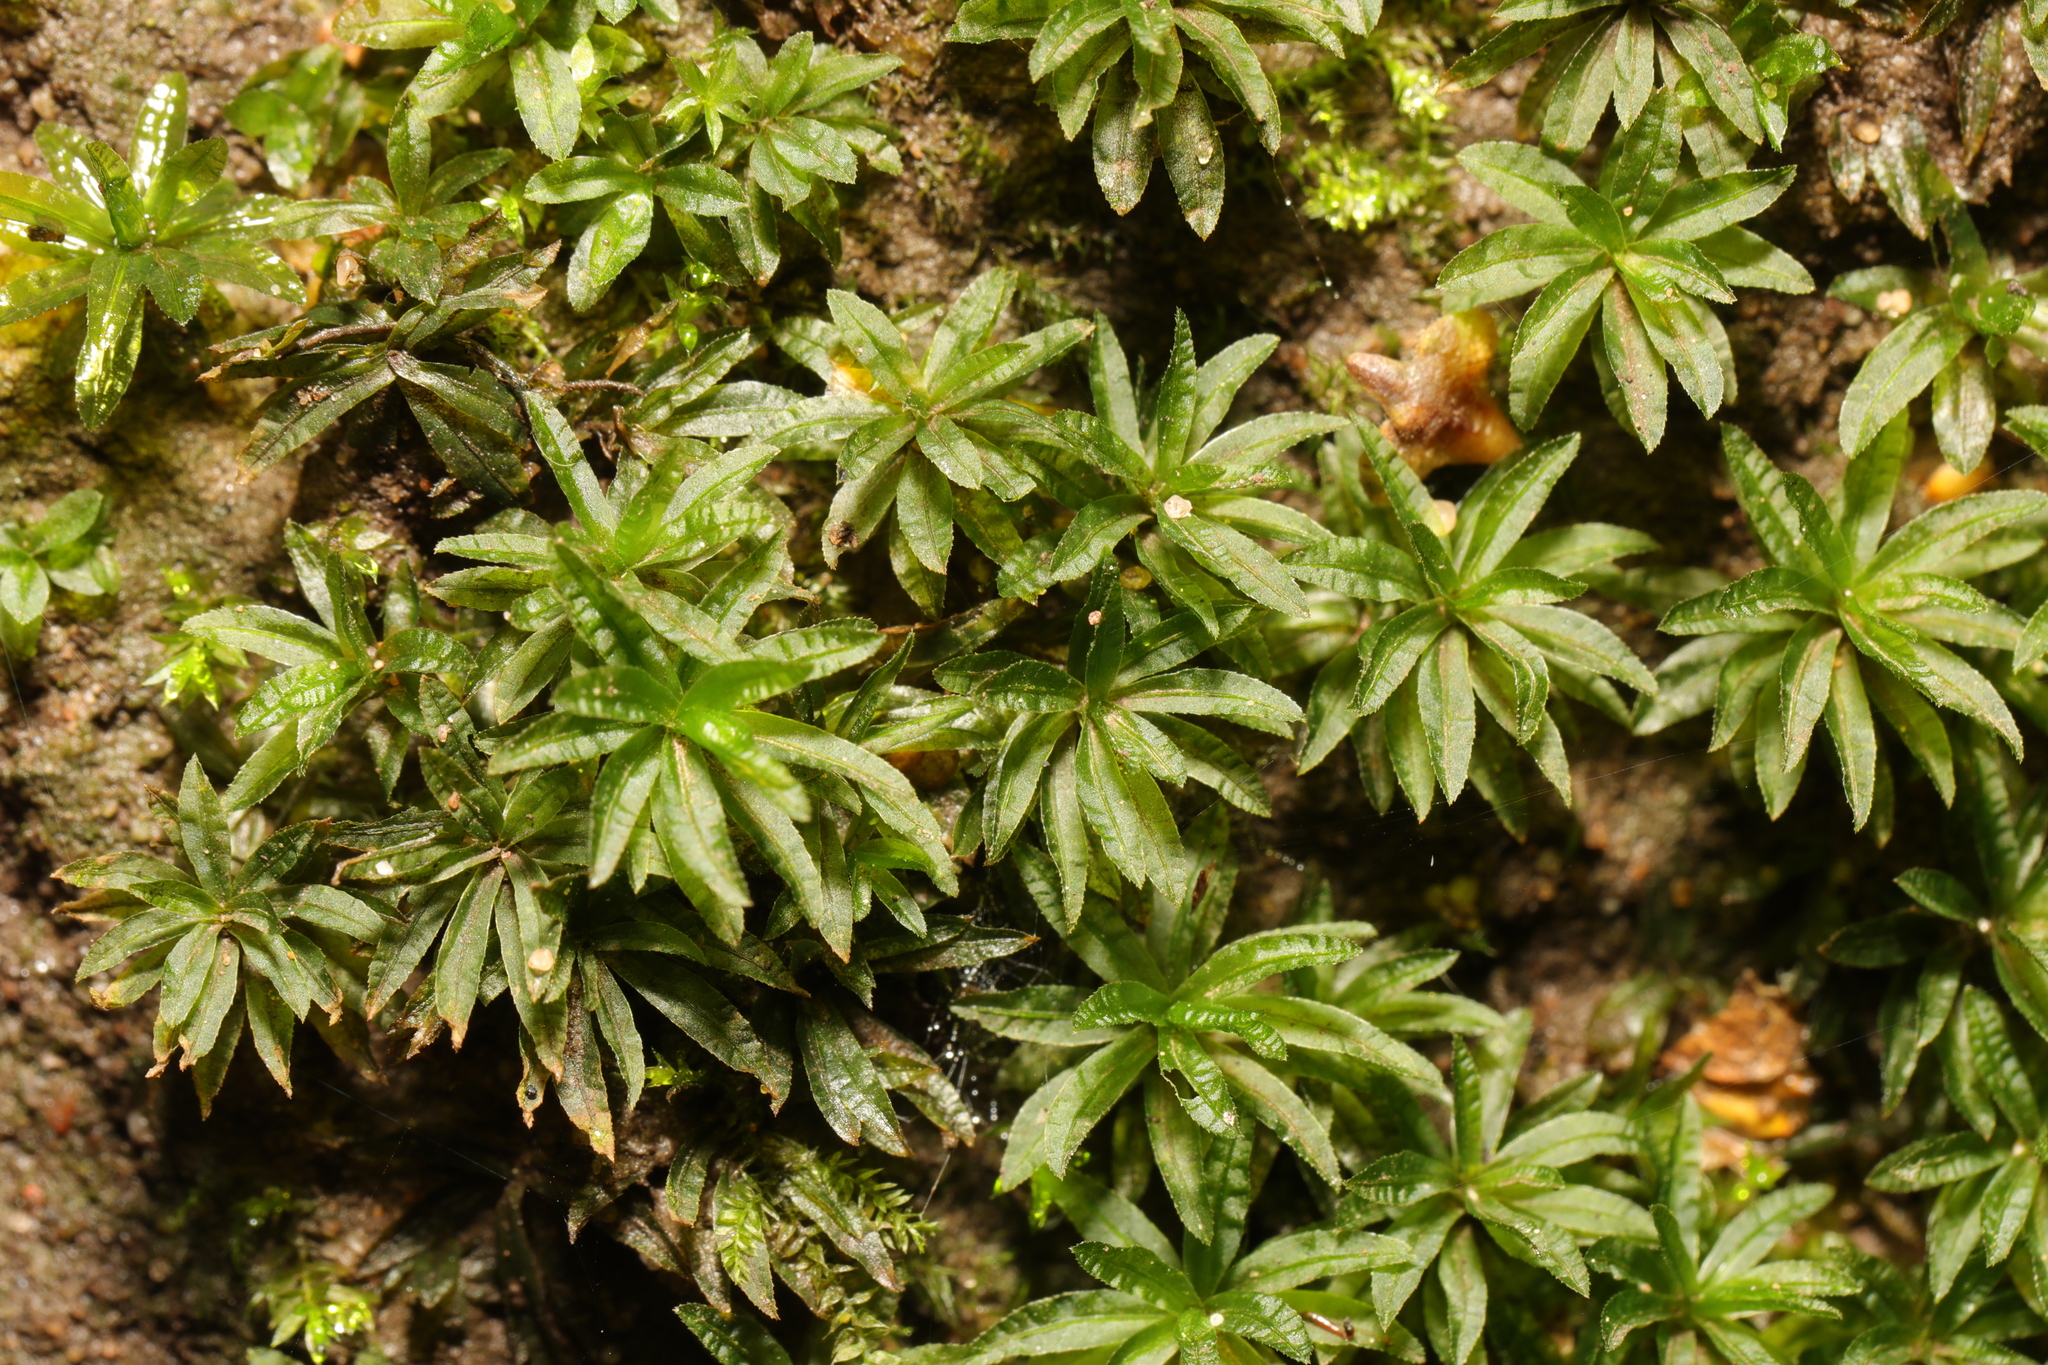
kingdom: Plantae
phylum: Bryophyta
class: Polytrichopsida
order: Polytrichales
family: Polytrichaceae
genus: Atrichum
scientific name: Atrichum undulatum
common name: Common smoothcap
